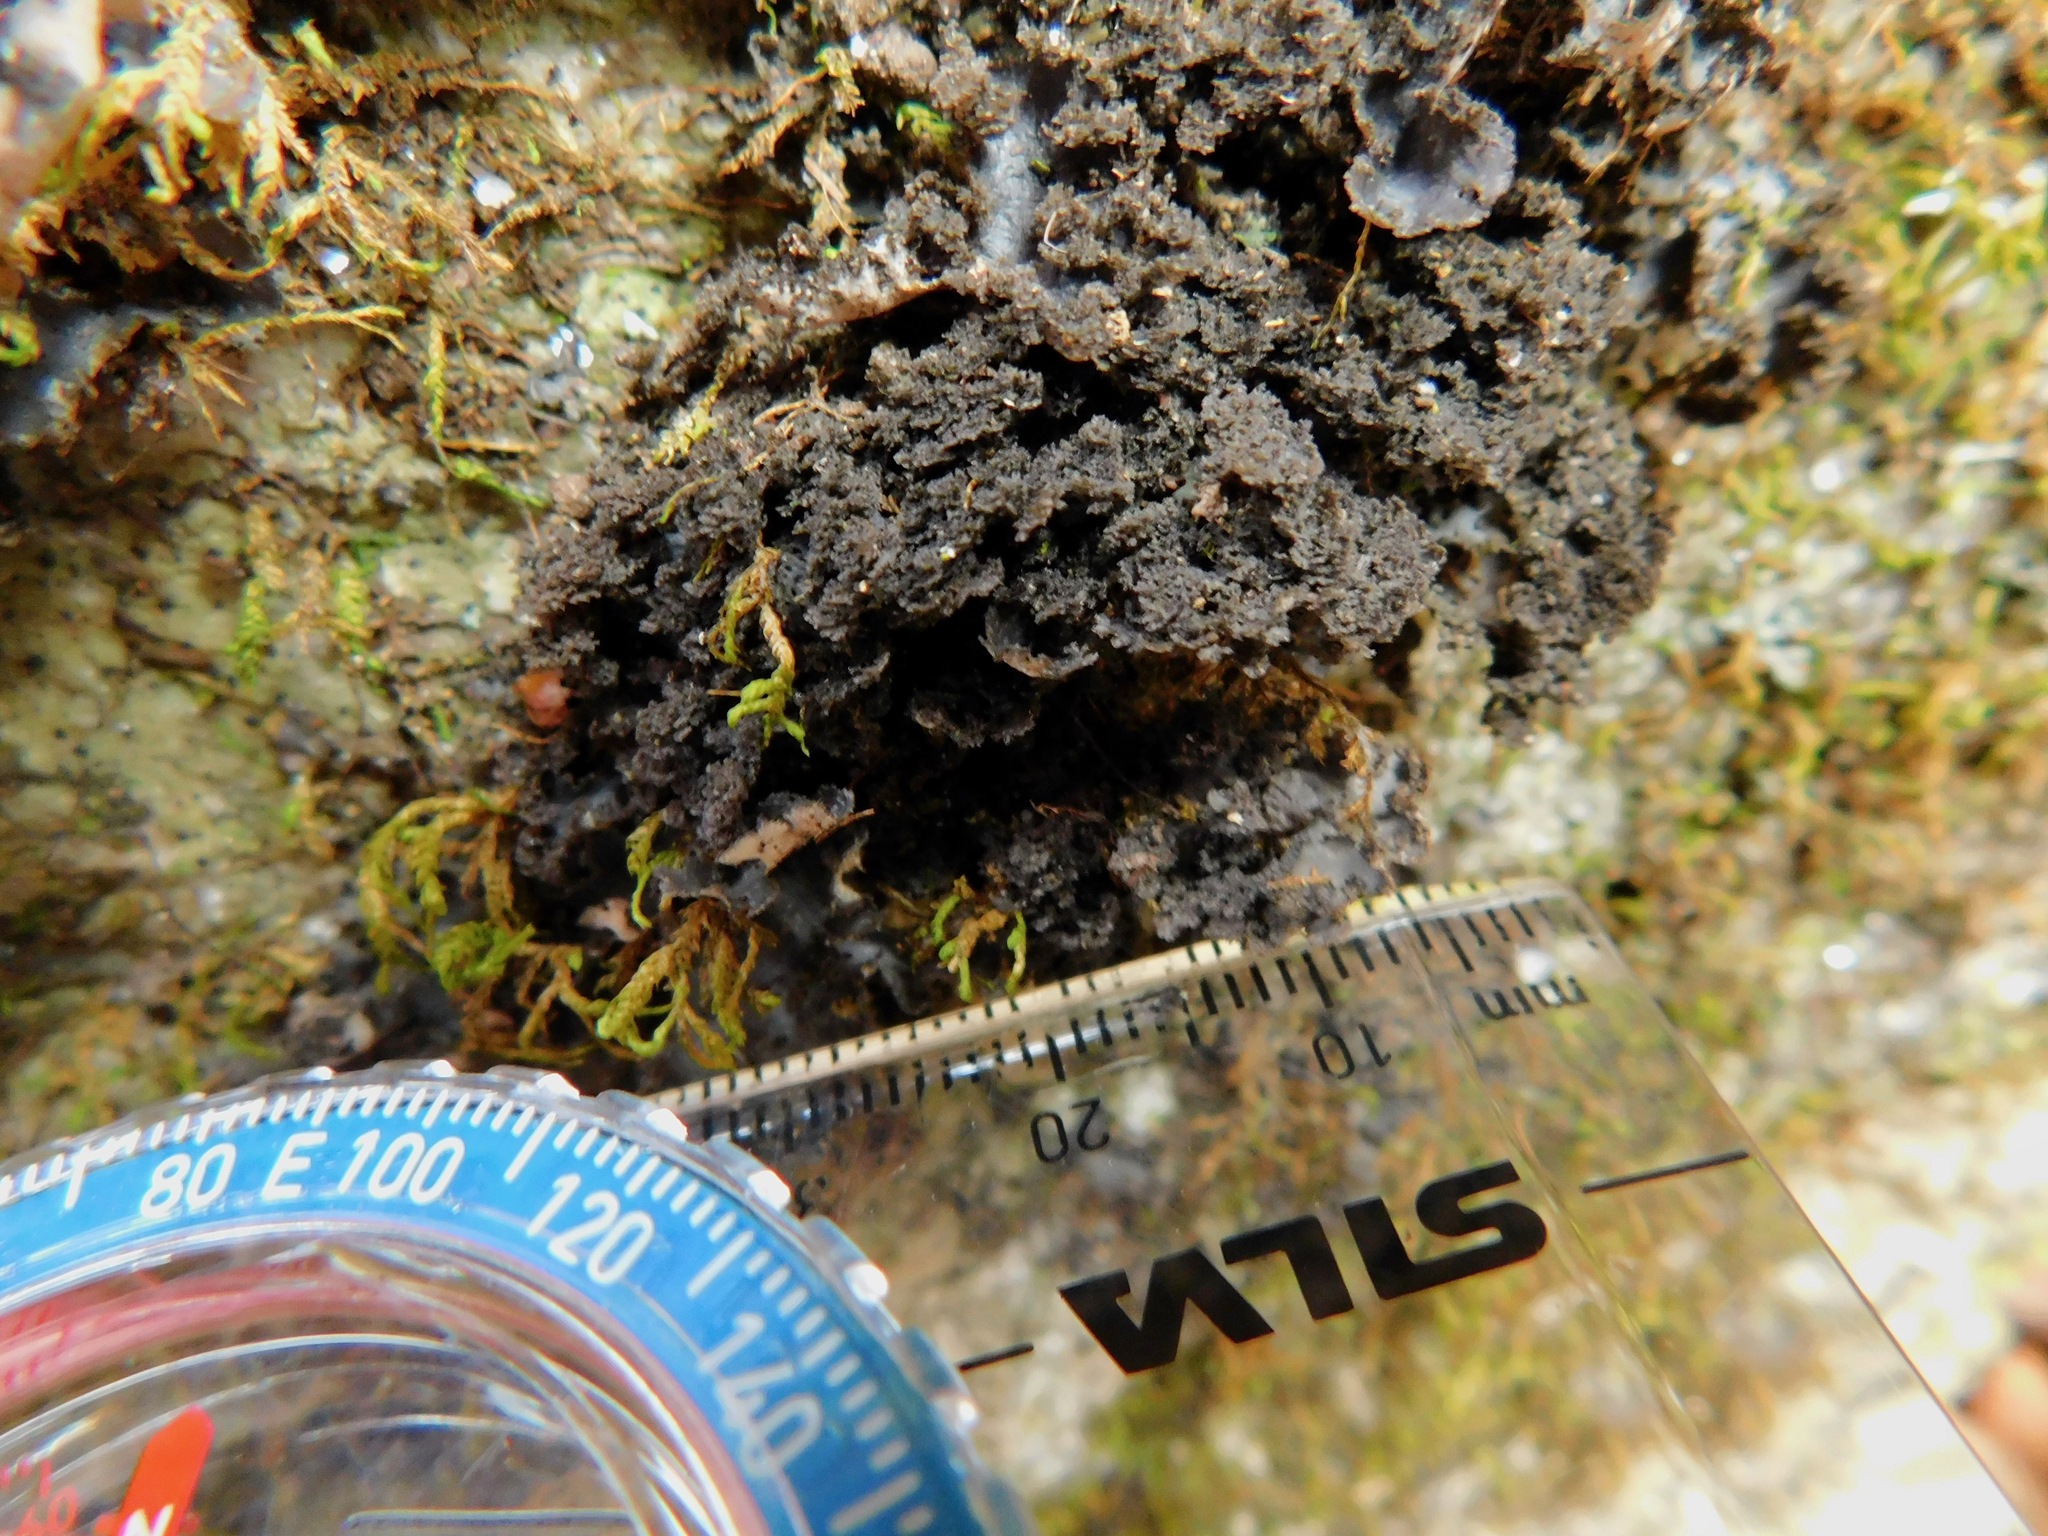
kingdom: Fungi
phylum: Ascomycota
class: Lecanoromycetes
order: Peltigerales
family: Lobariaceae
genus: Sticta
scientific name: Sticta carolinensis
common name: Carolina moon lichen
